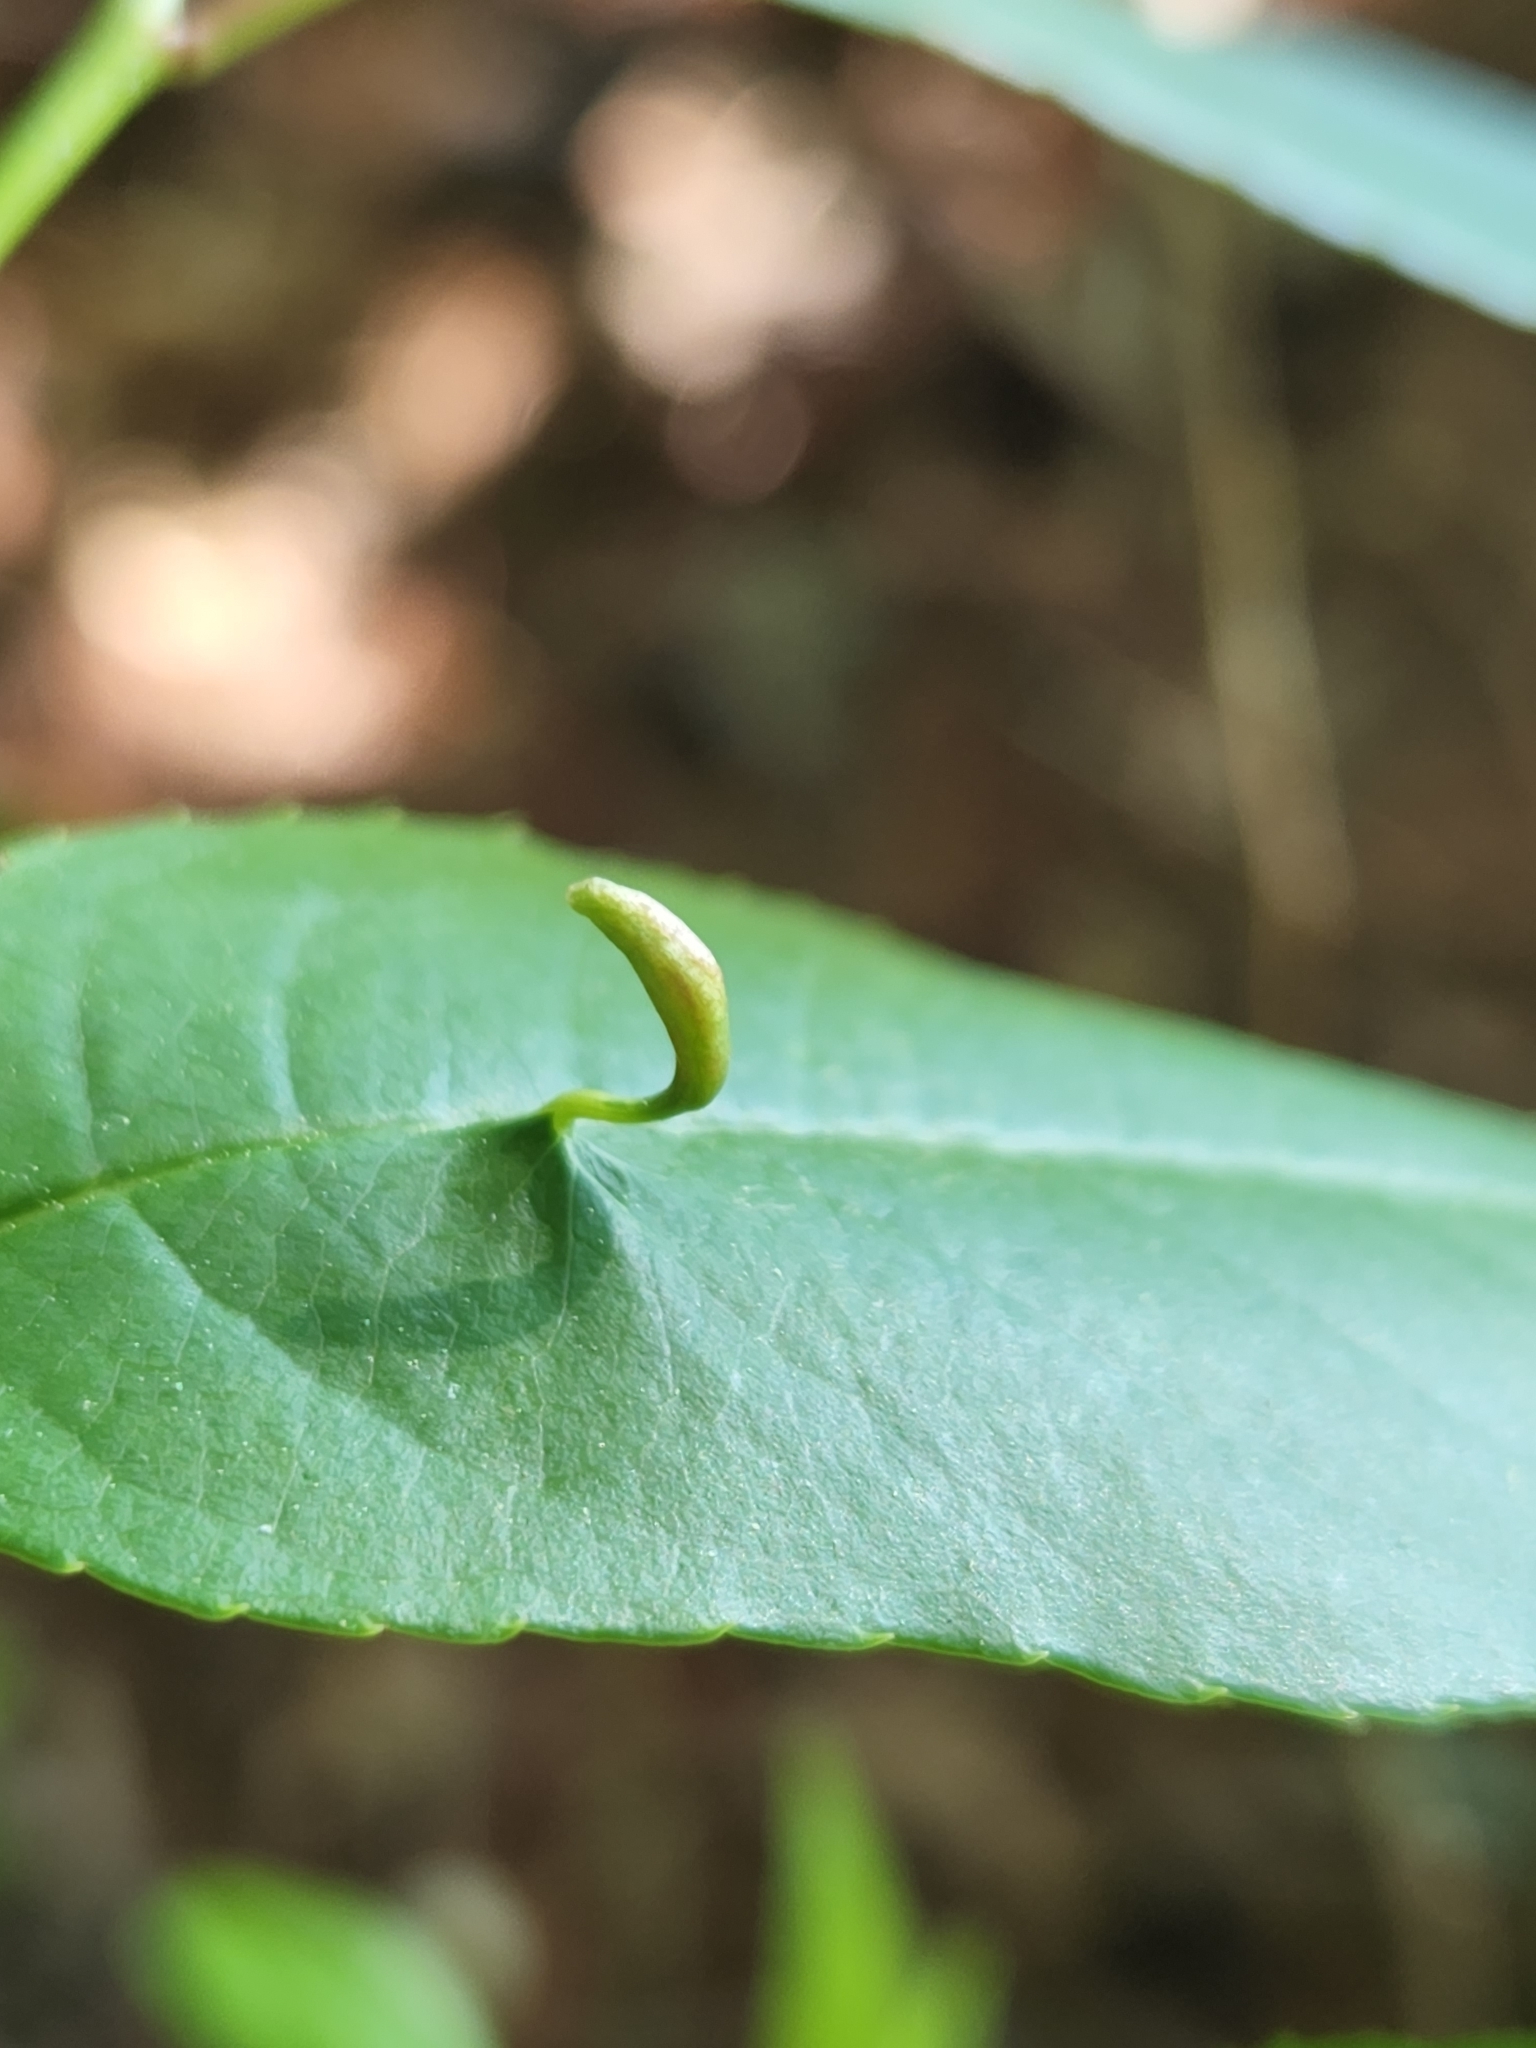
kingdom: Animalia
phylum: Arthropoda
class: Arachnida
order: Trombidiformes
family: Eriophyidae
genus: Eriophyes
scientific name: Eriophyes
